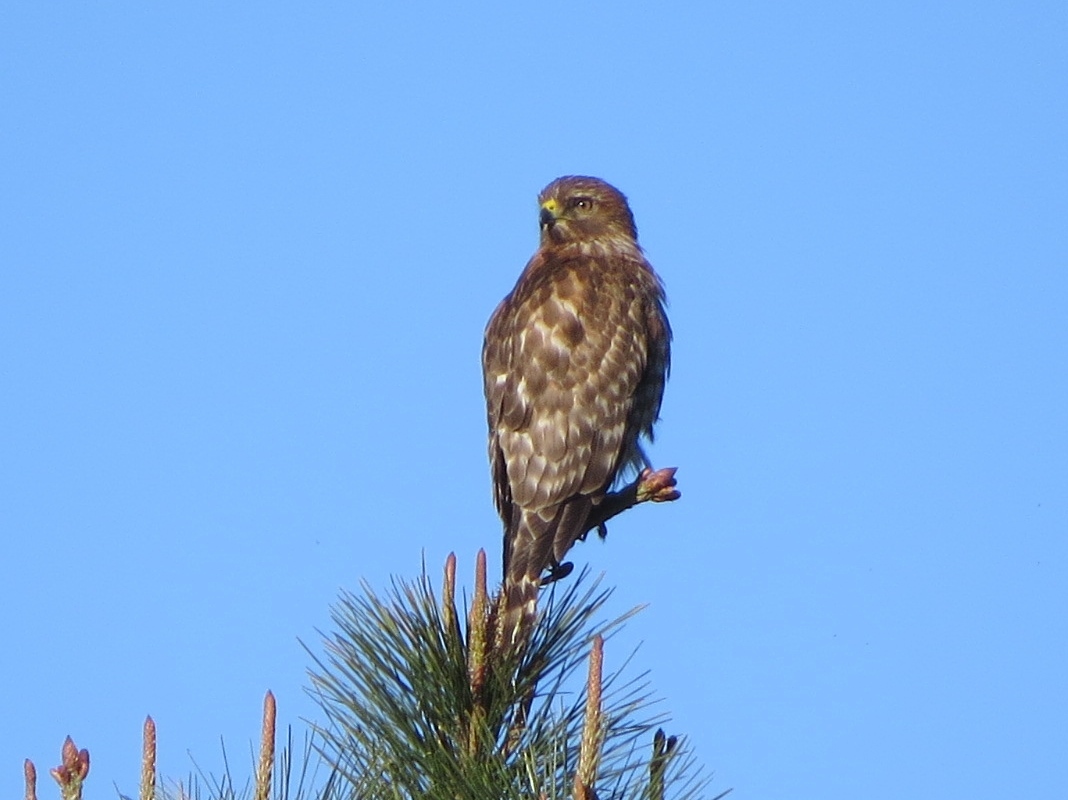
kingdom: Animalia
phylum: Chordata
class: Aves
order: Accipitriformes
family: Accipitridae
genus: Buteo
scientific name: Buteo lineatus
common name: Red-shouldered hawk
